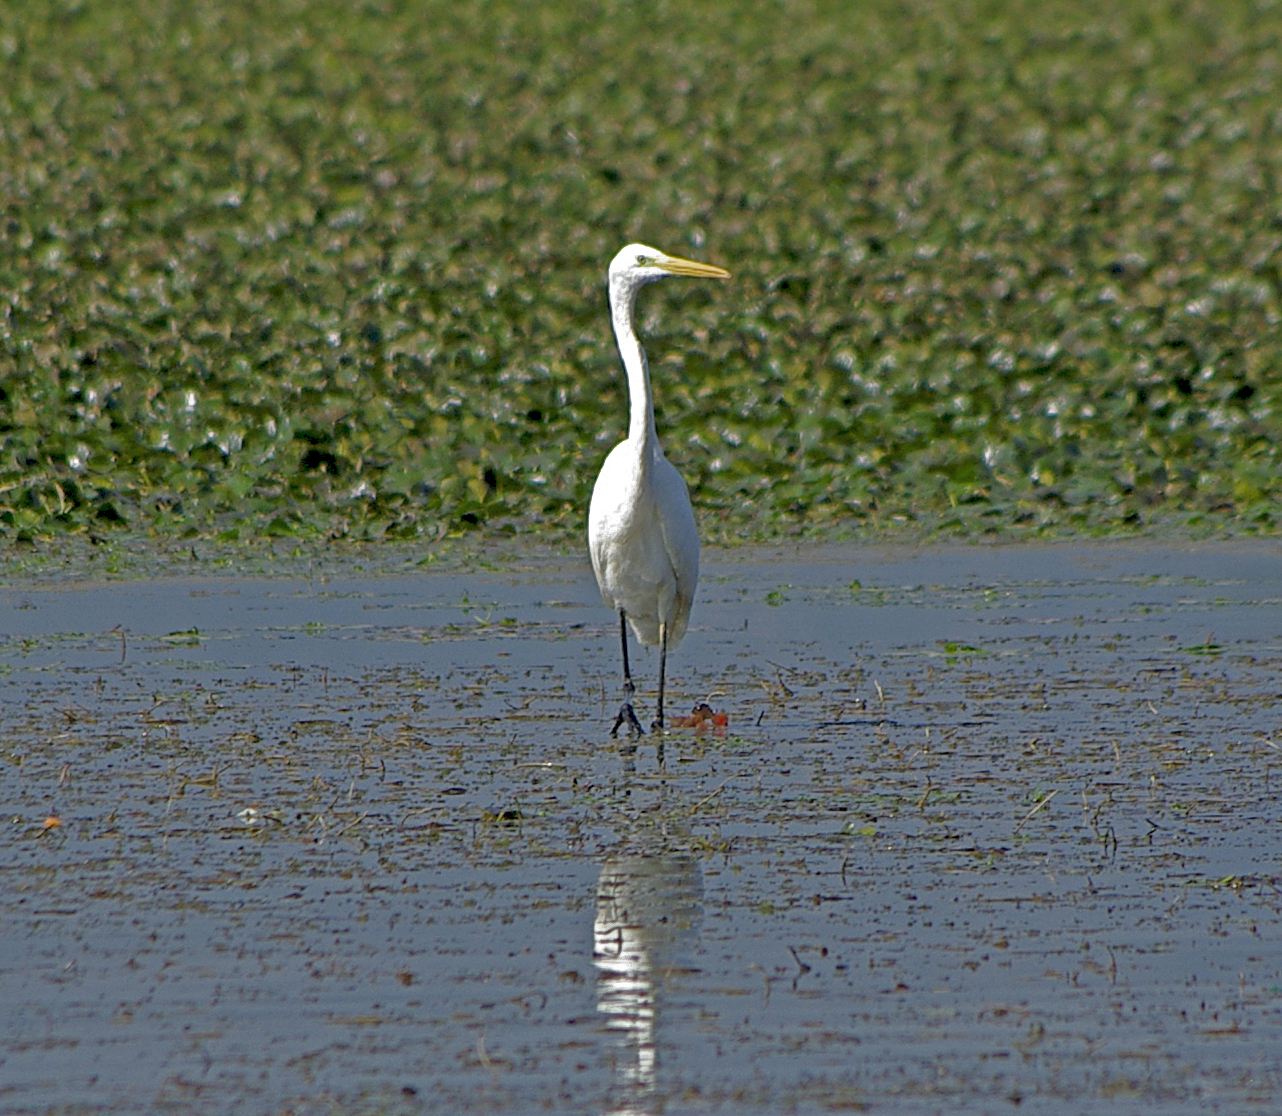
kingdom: Animalia
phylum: Chordata
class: Aves
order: Pelecaniformes
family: Ardeidae
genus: Ardea
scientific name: Ardea alba
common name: Great egret
